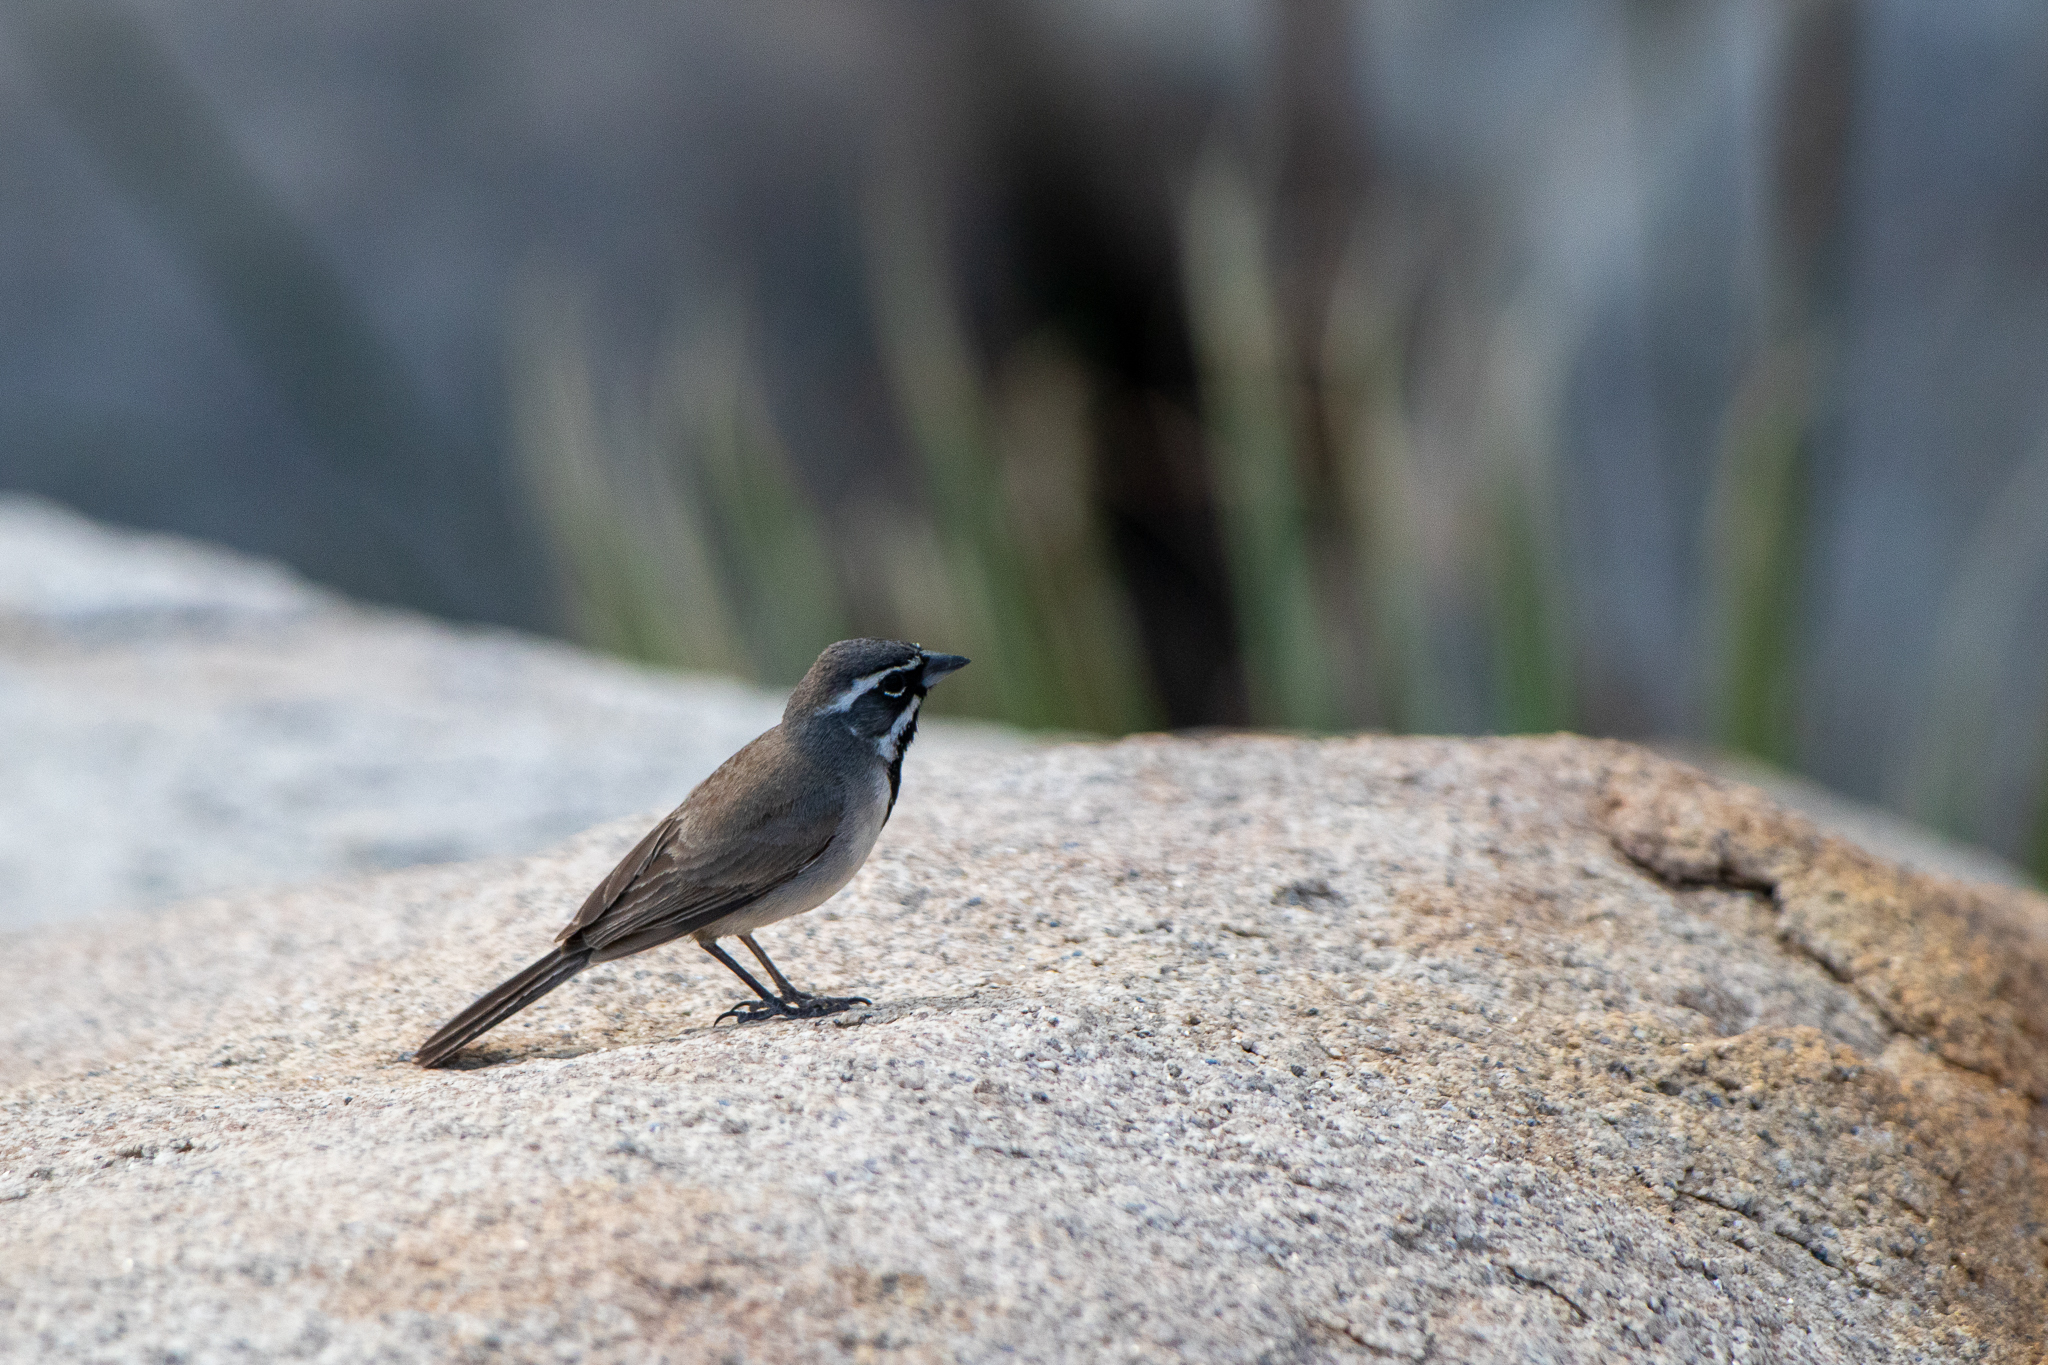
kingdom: Animalia
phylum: Chordata
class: Aves
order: Passeriformes
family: Passerellidae
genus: Amphispiza
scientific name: Amphispiza bilineata
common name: Black-throated sparrow
